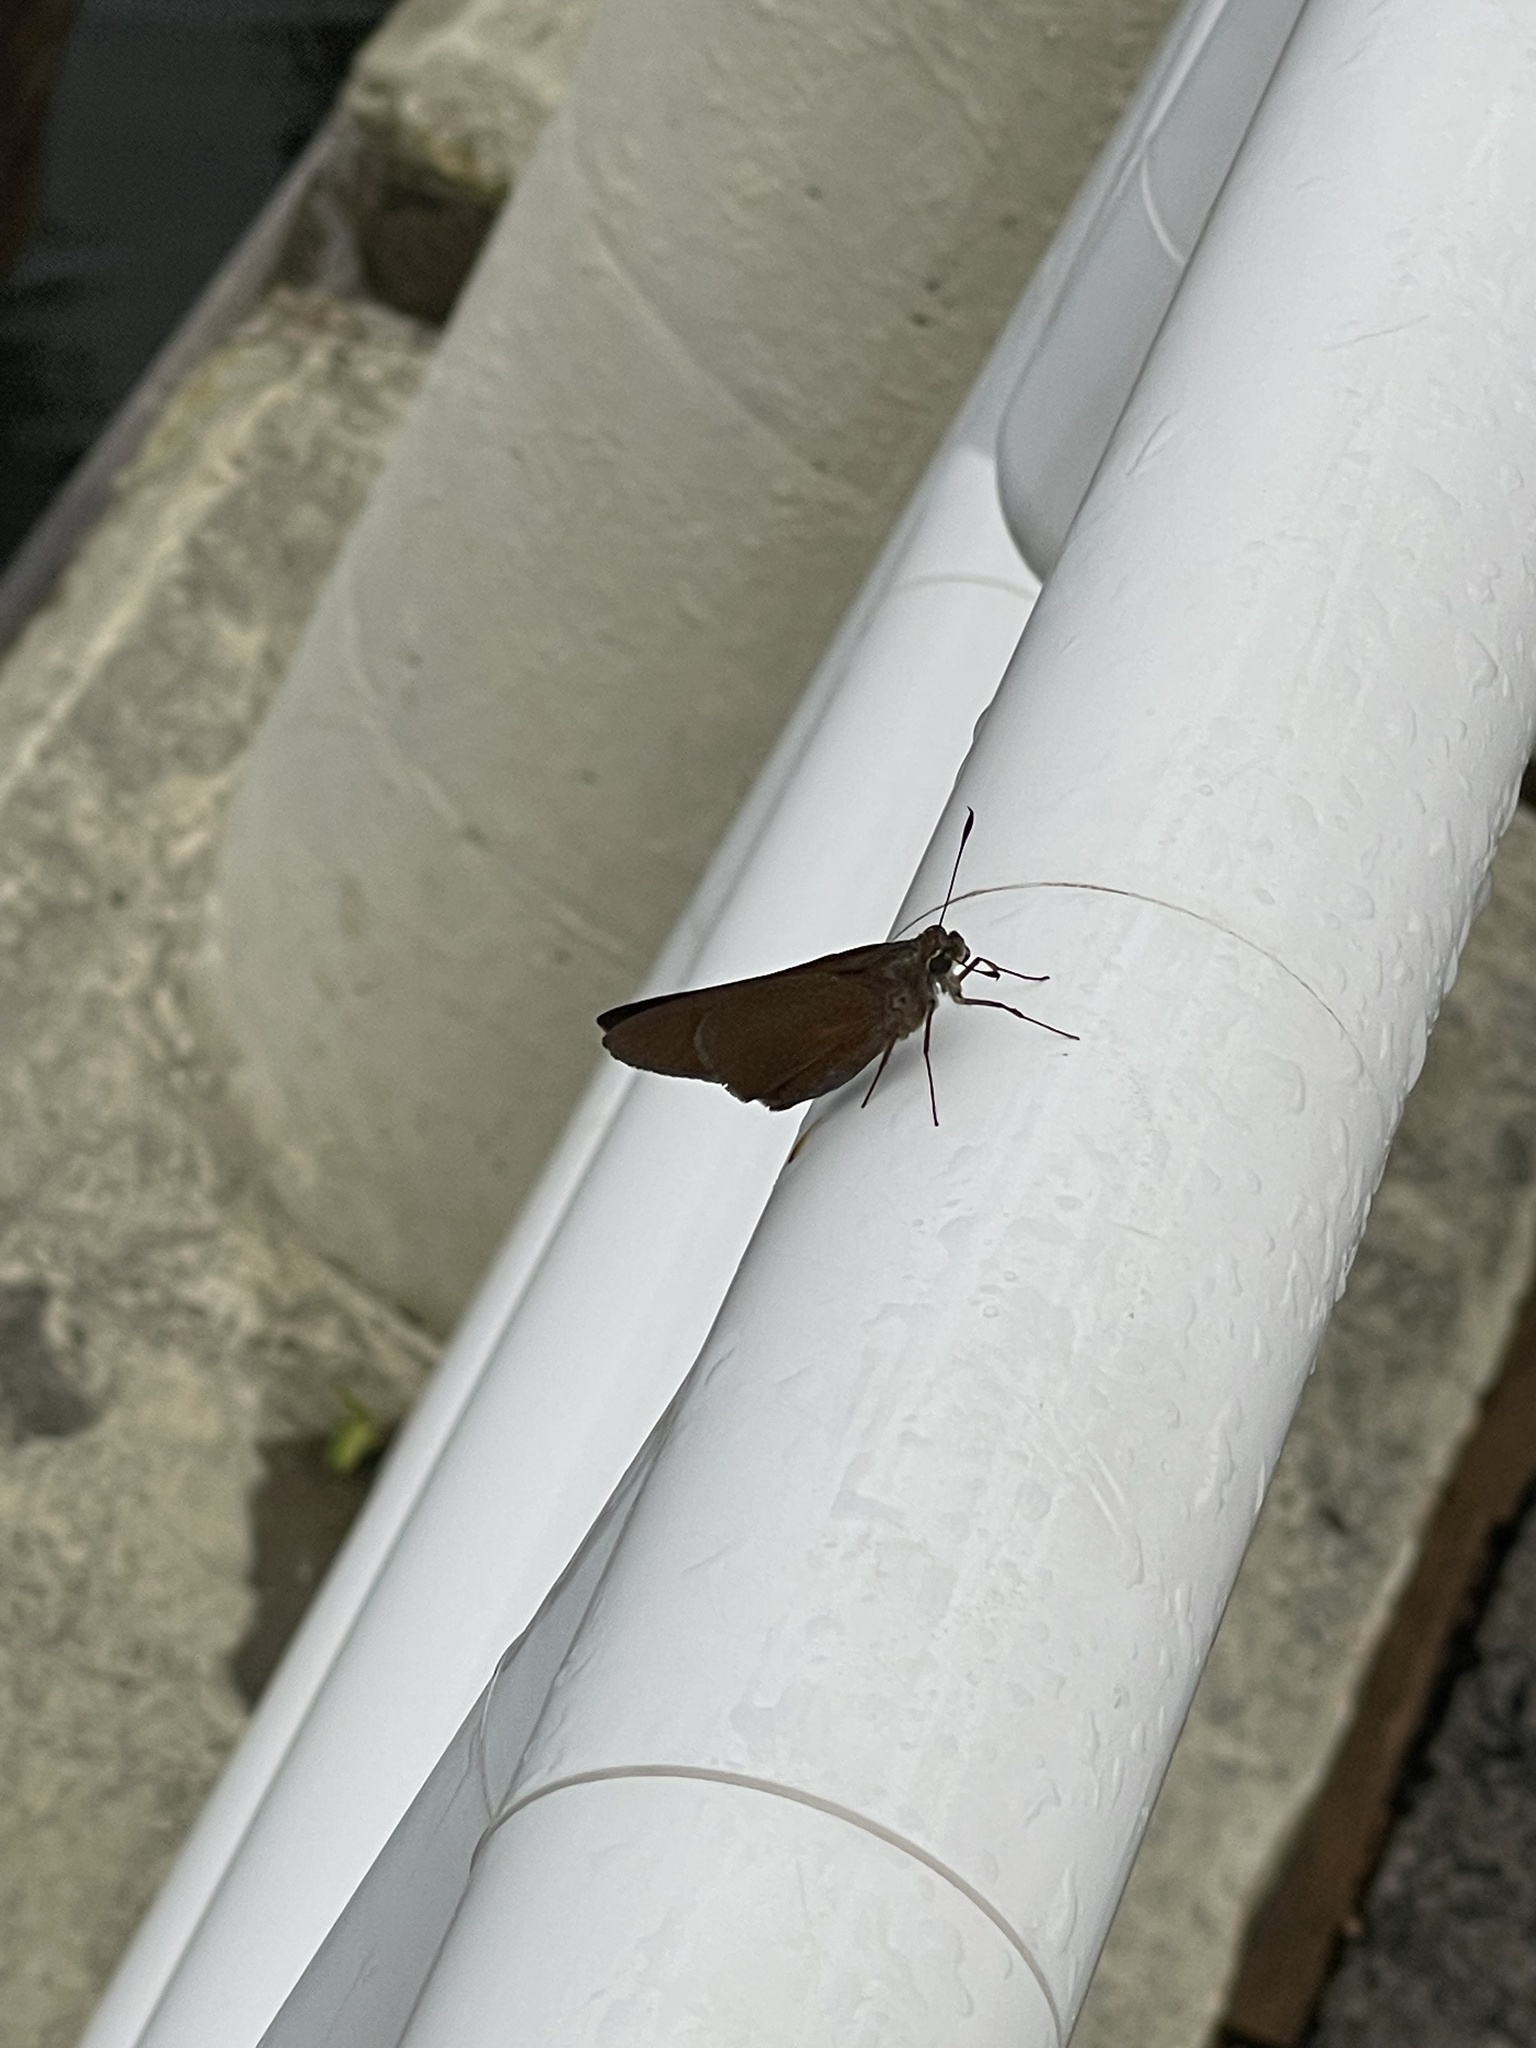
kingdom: Animalia
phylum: Arthropoda
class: Insecta
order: Lepidoptera
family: Hesperiidae
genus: Asbolis
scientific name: Asbolis capucinus
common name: Monk skipper
